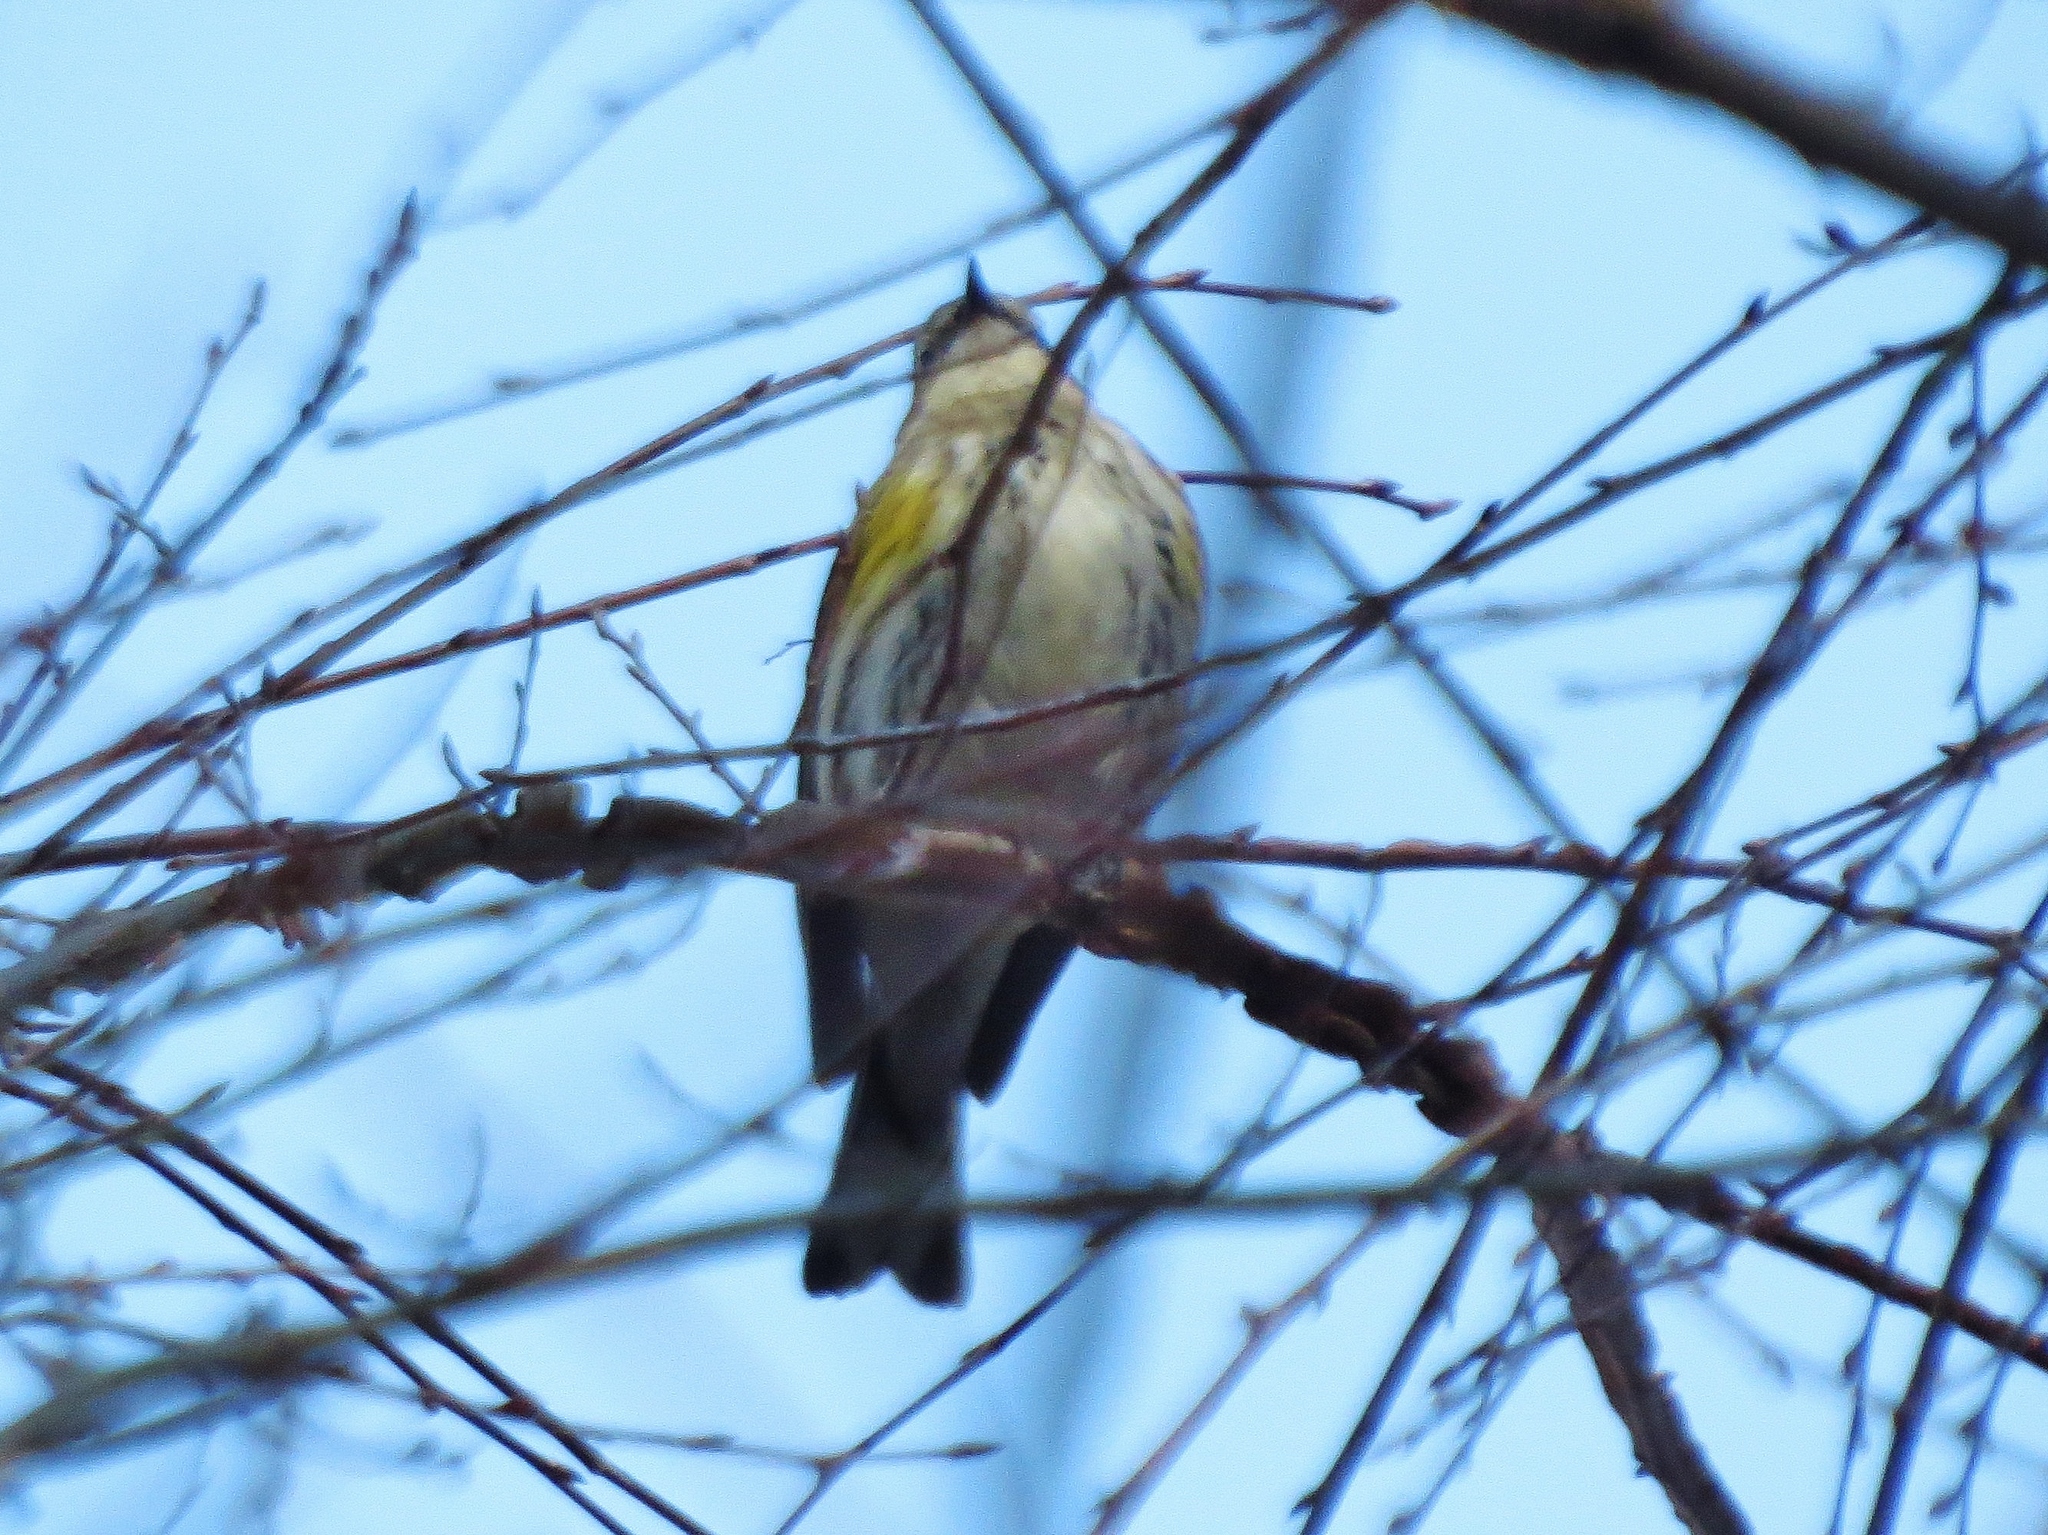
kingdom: Animalia
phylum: Chordata
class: Aves
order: Passeriformes
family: Parulidae
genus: Setophaga
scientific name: Setophaga coronata
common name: Myrtle warbler
